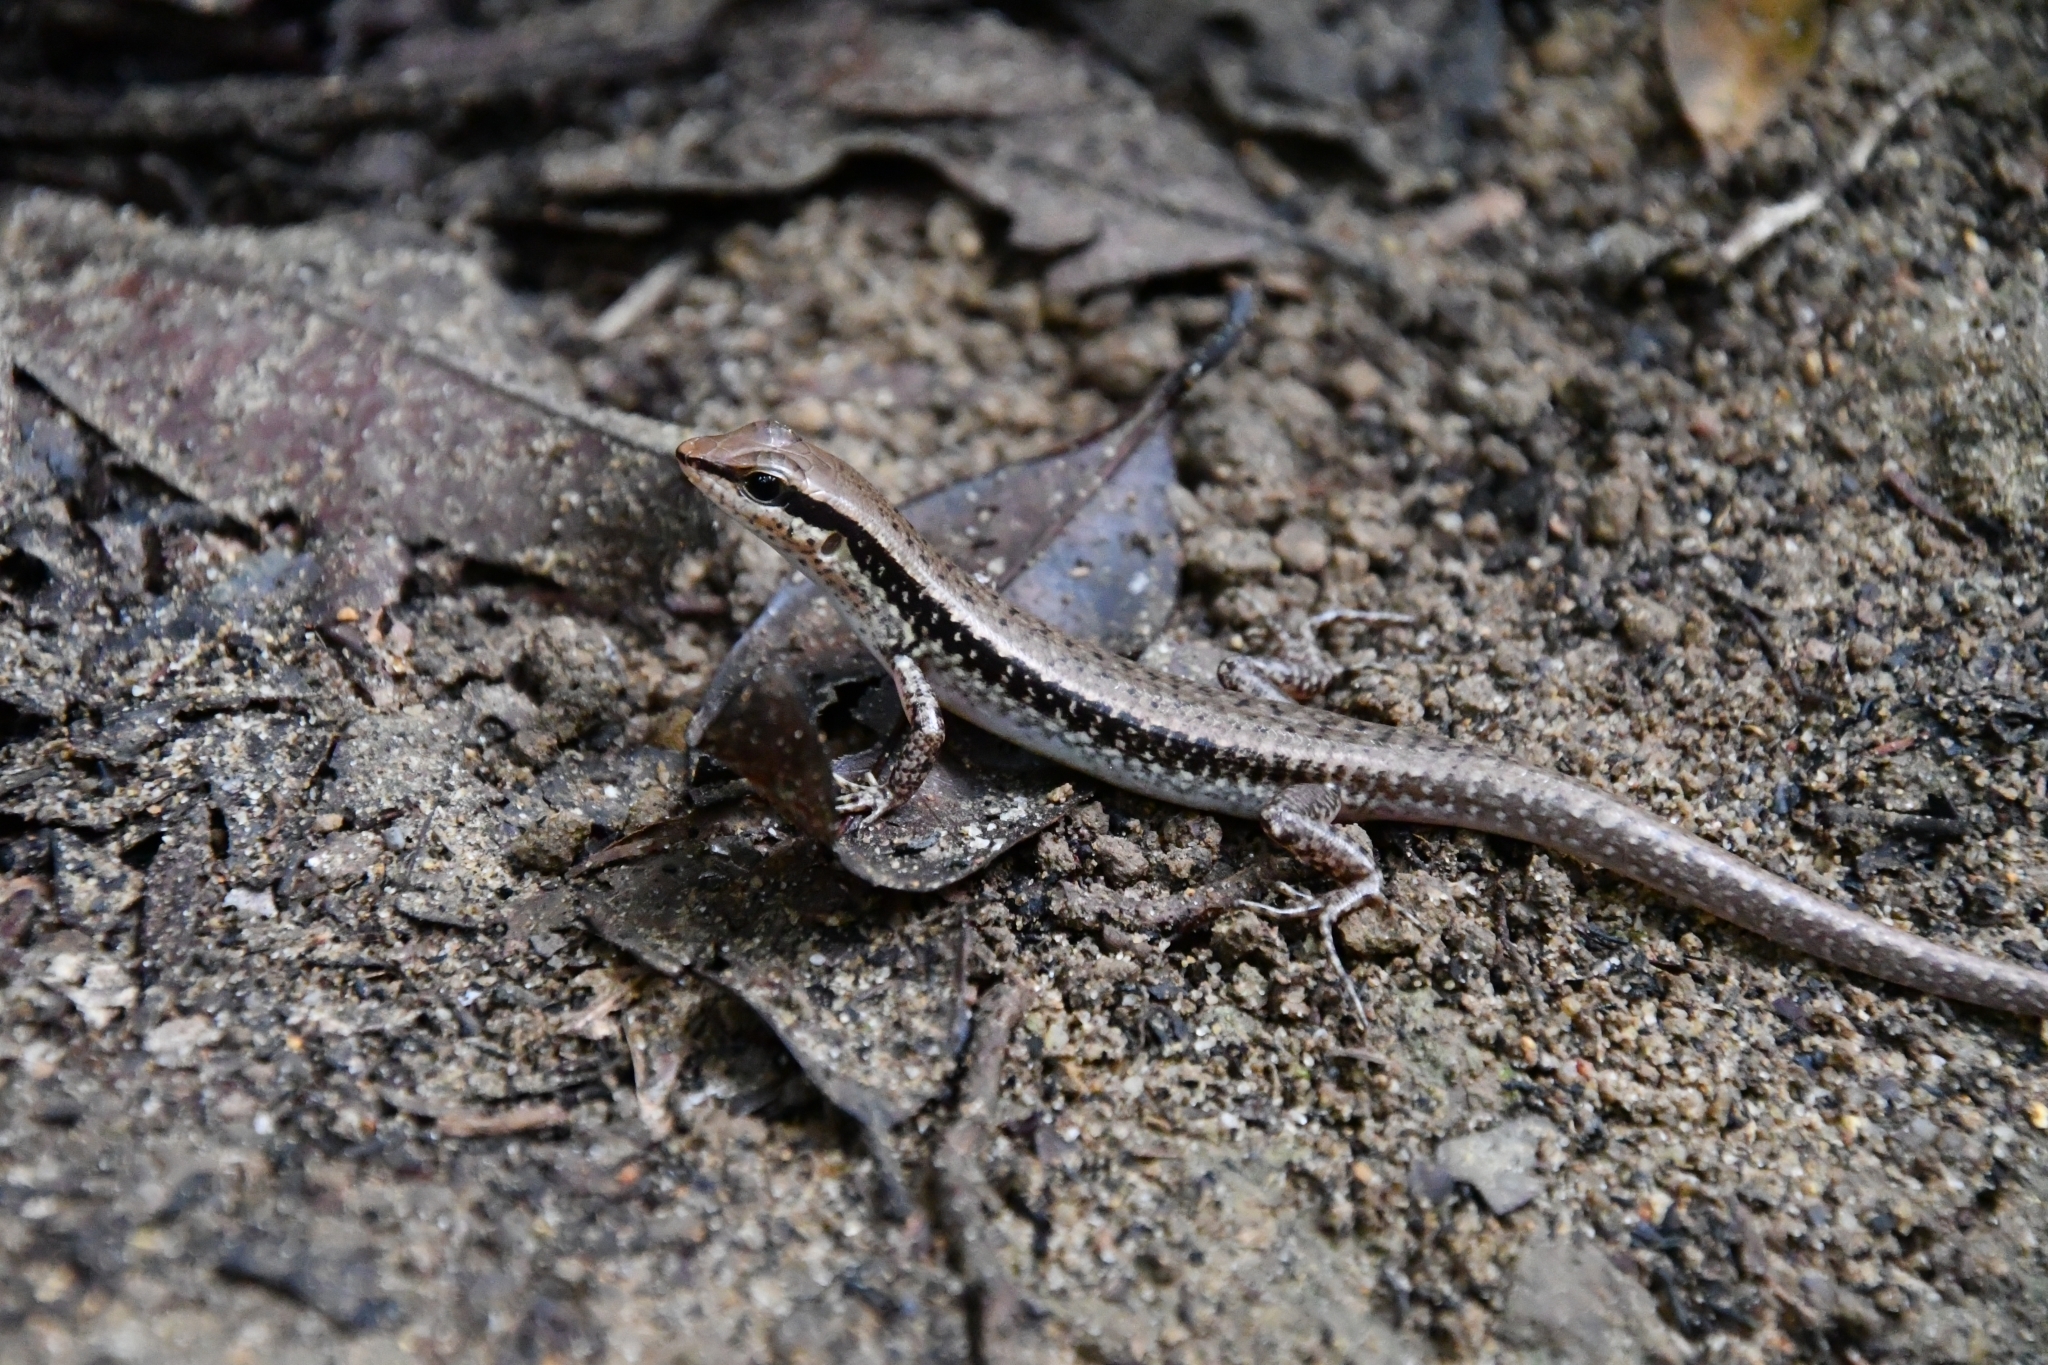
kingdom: Animalia
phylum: Chordata
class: Squamata
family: Scincidae
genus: Sphenomorphus
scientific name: Sphenomorphus maculatus
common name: Maculated forest skink
